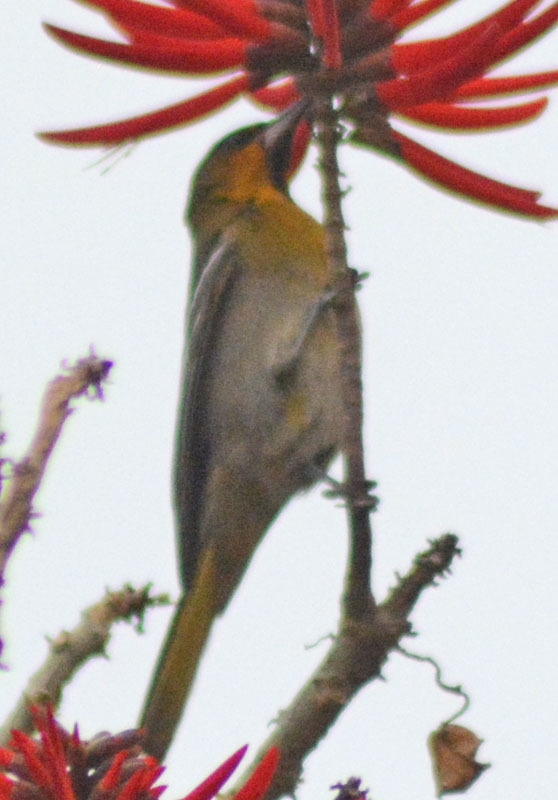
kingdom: Animalia
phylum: Chordata
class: Aves
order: Passeriformes
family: Icteridae
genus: Icterus
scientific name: Icterus abeillei
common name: Black-backed oriole
